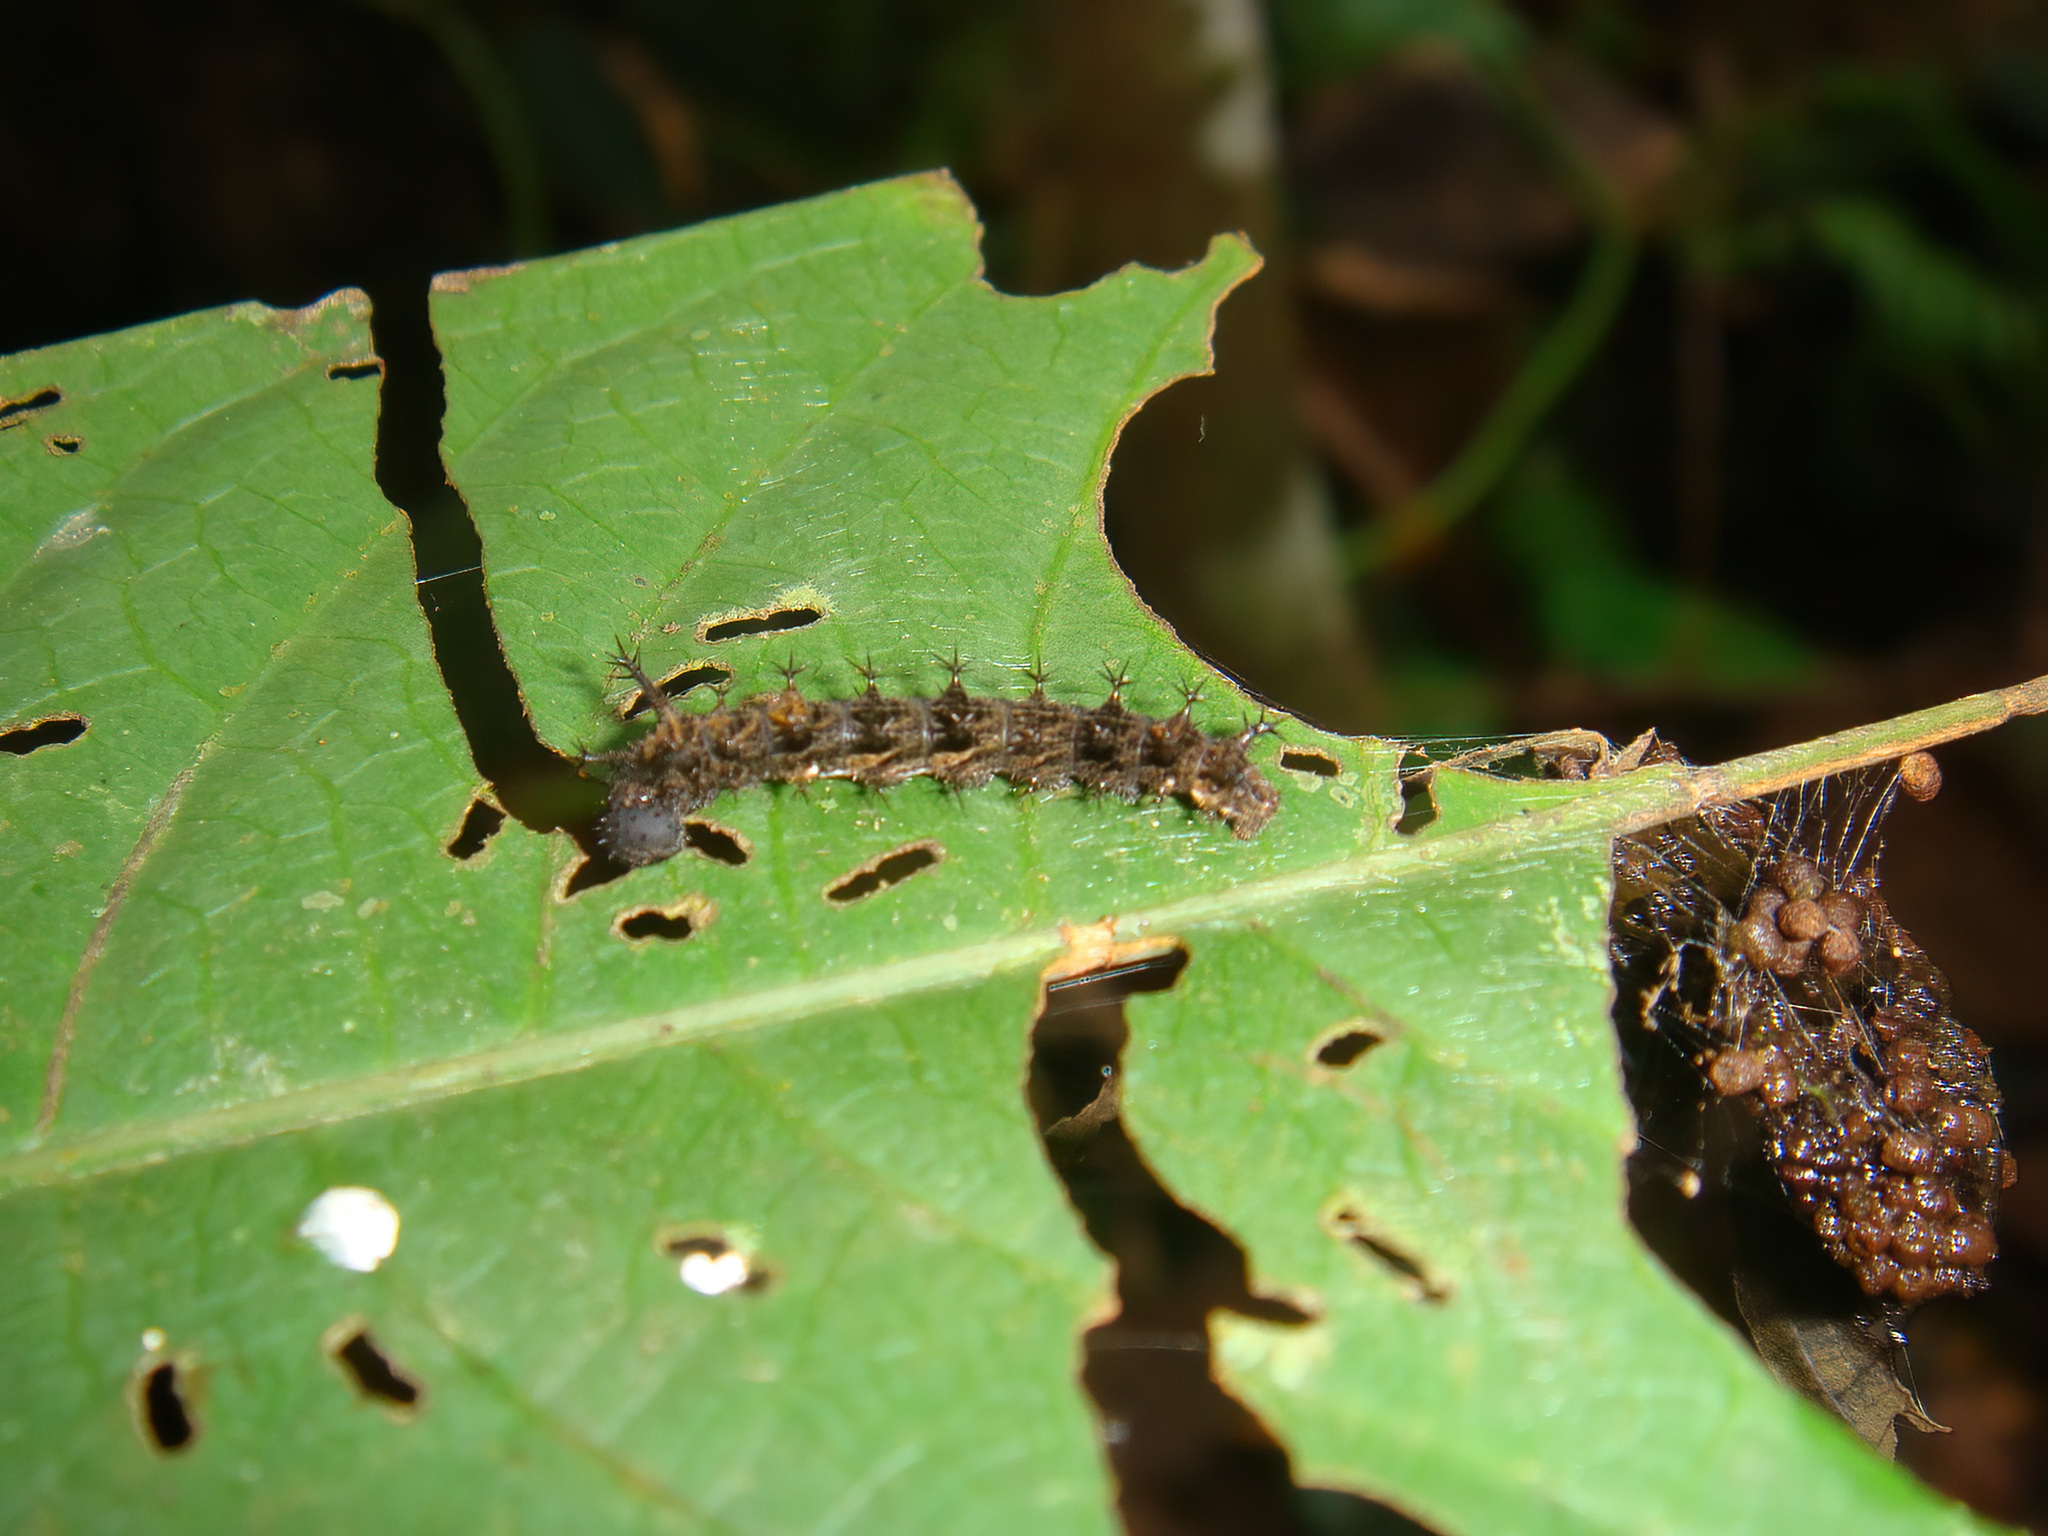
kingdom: Animalia
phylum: Arthropoda
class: Insecta
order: Lepidoptera
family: Nymphalidae
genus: Lebadea
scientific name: Lebadea martha
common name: Knight
